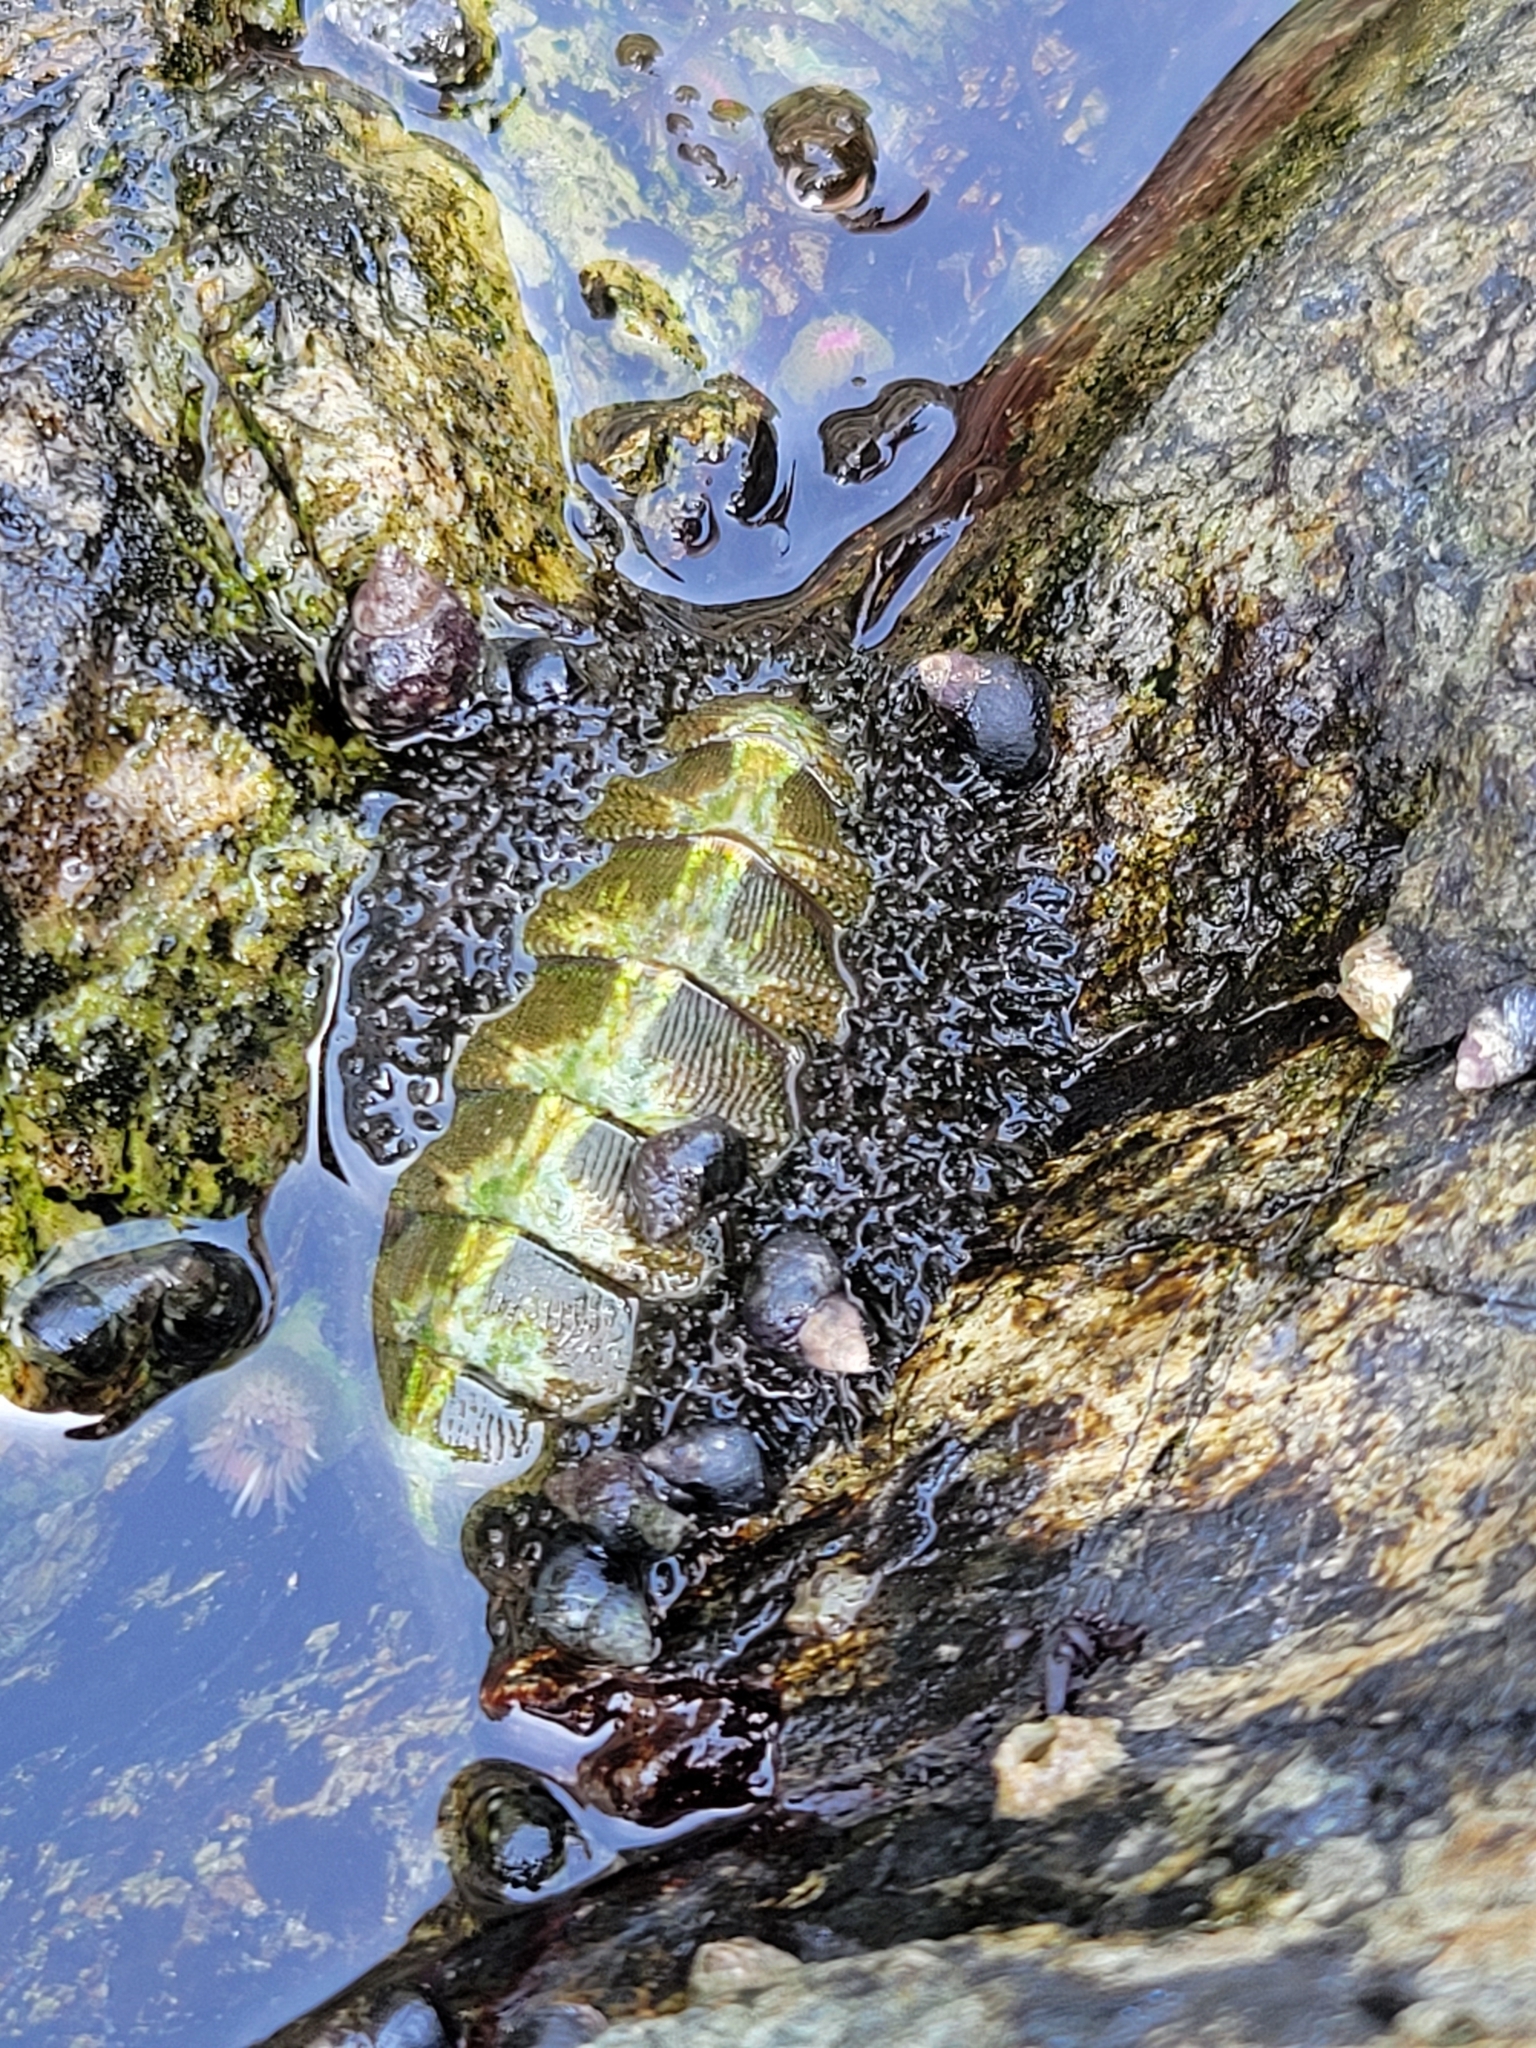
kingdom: Animalia
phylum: Mollusca
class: Polyplacophora
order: Chitonida
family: Mopaliidae
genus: Mopalia
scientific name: Mopalia muscosa
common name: Mossy chiton
